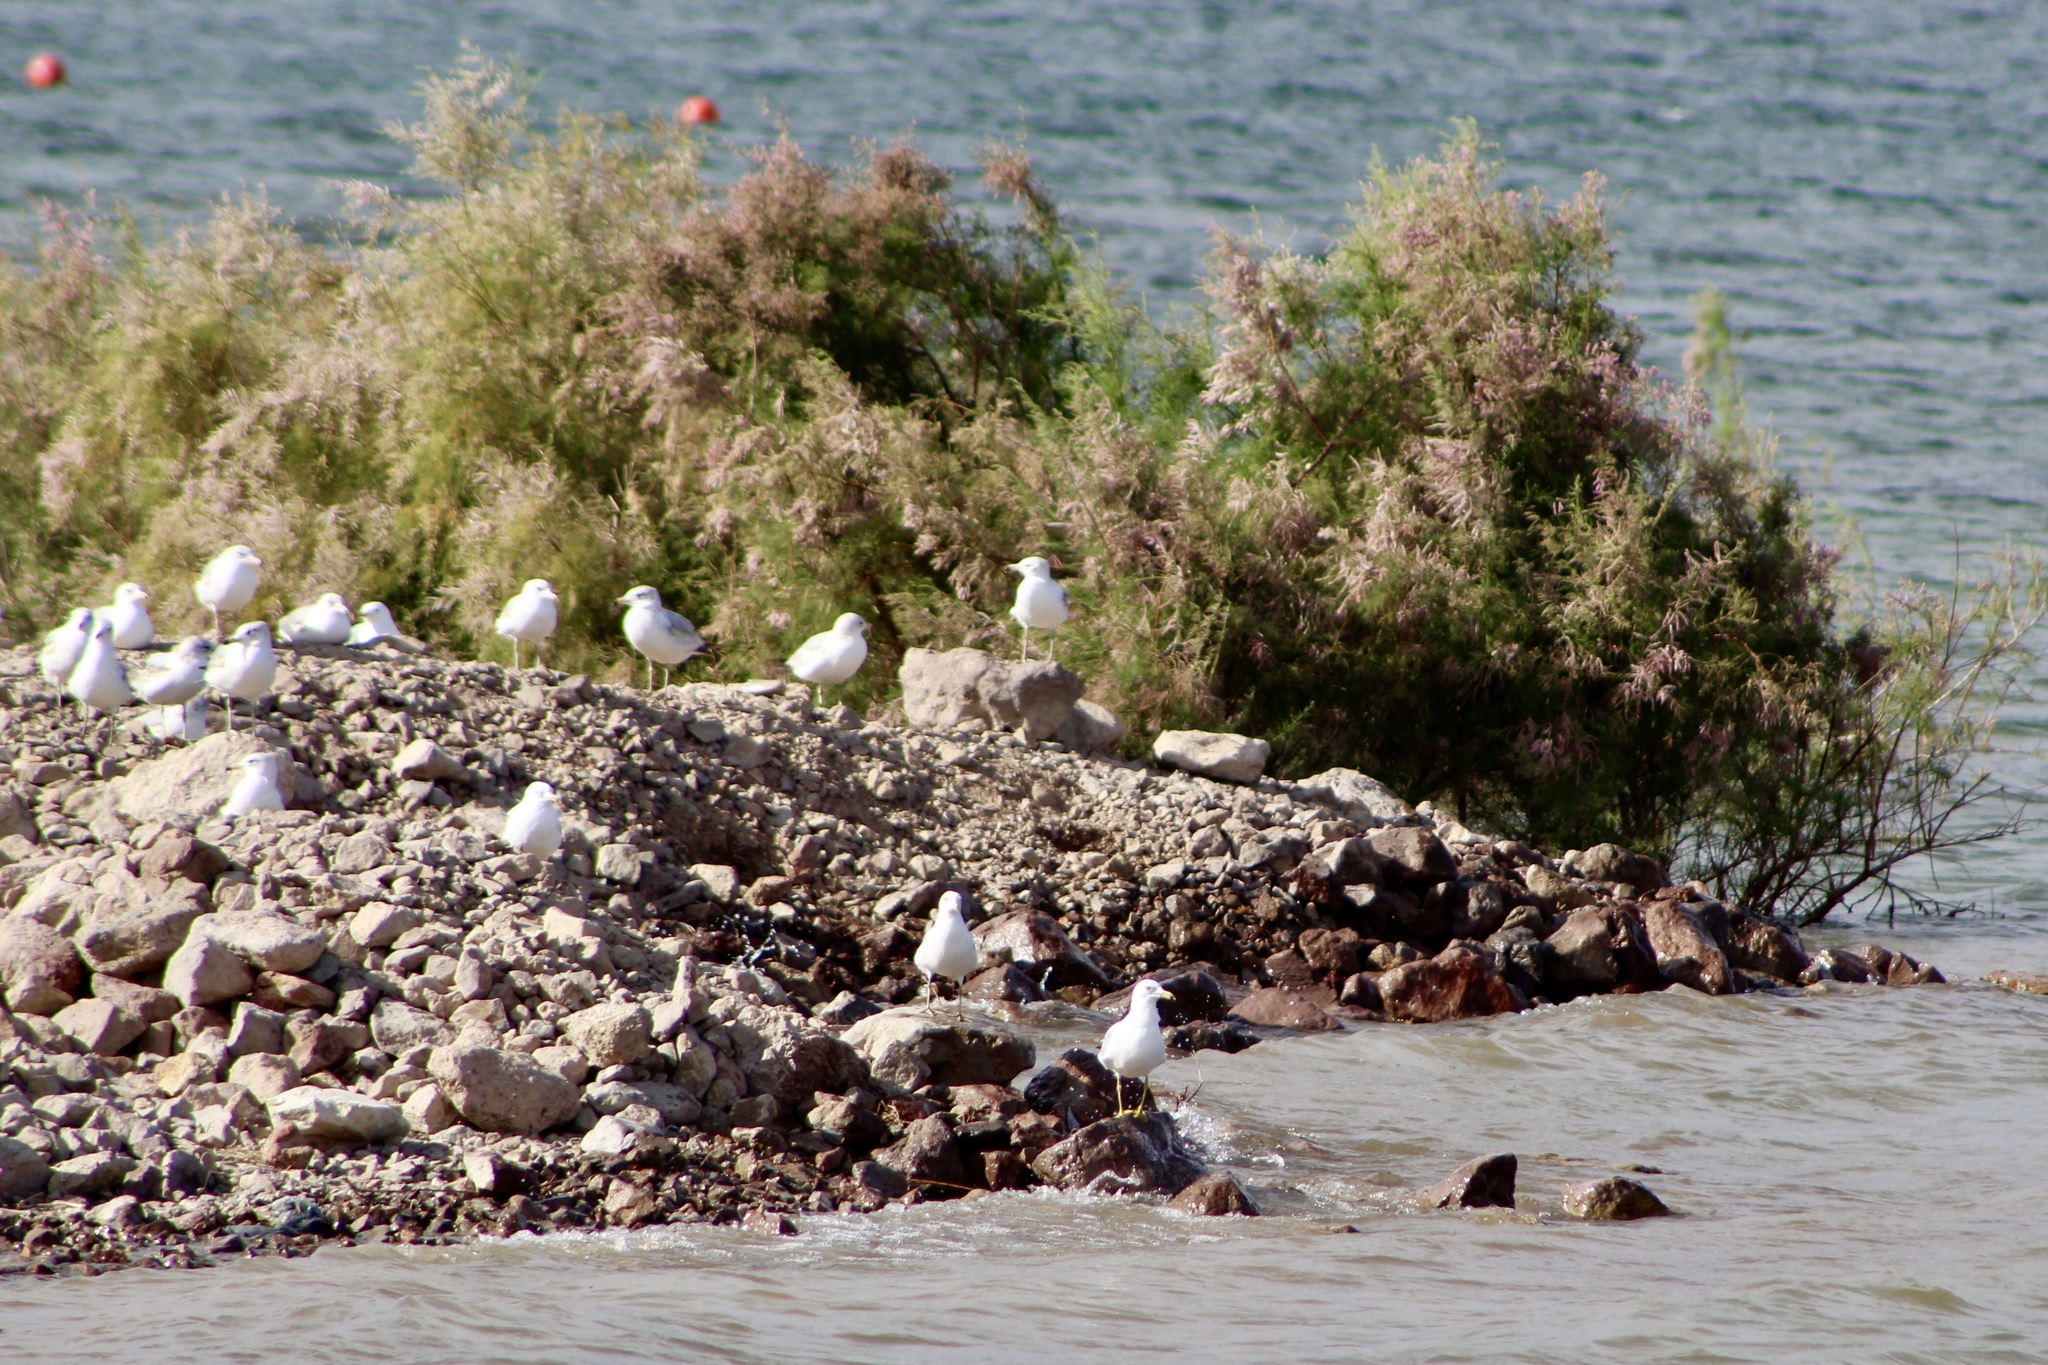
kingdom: Animalia
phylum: Chordata
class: Aves
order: Charadriiformes
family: Laridae
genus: Larus
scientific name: Larus delawarensis
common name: Ring-billed gull
